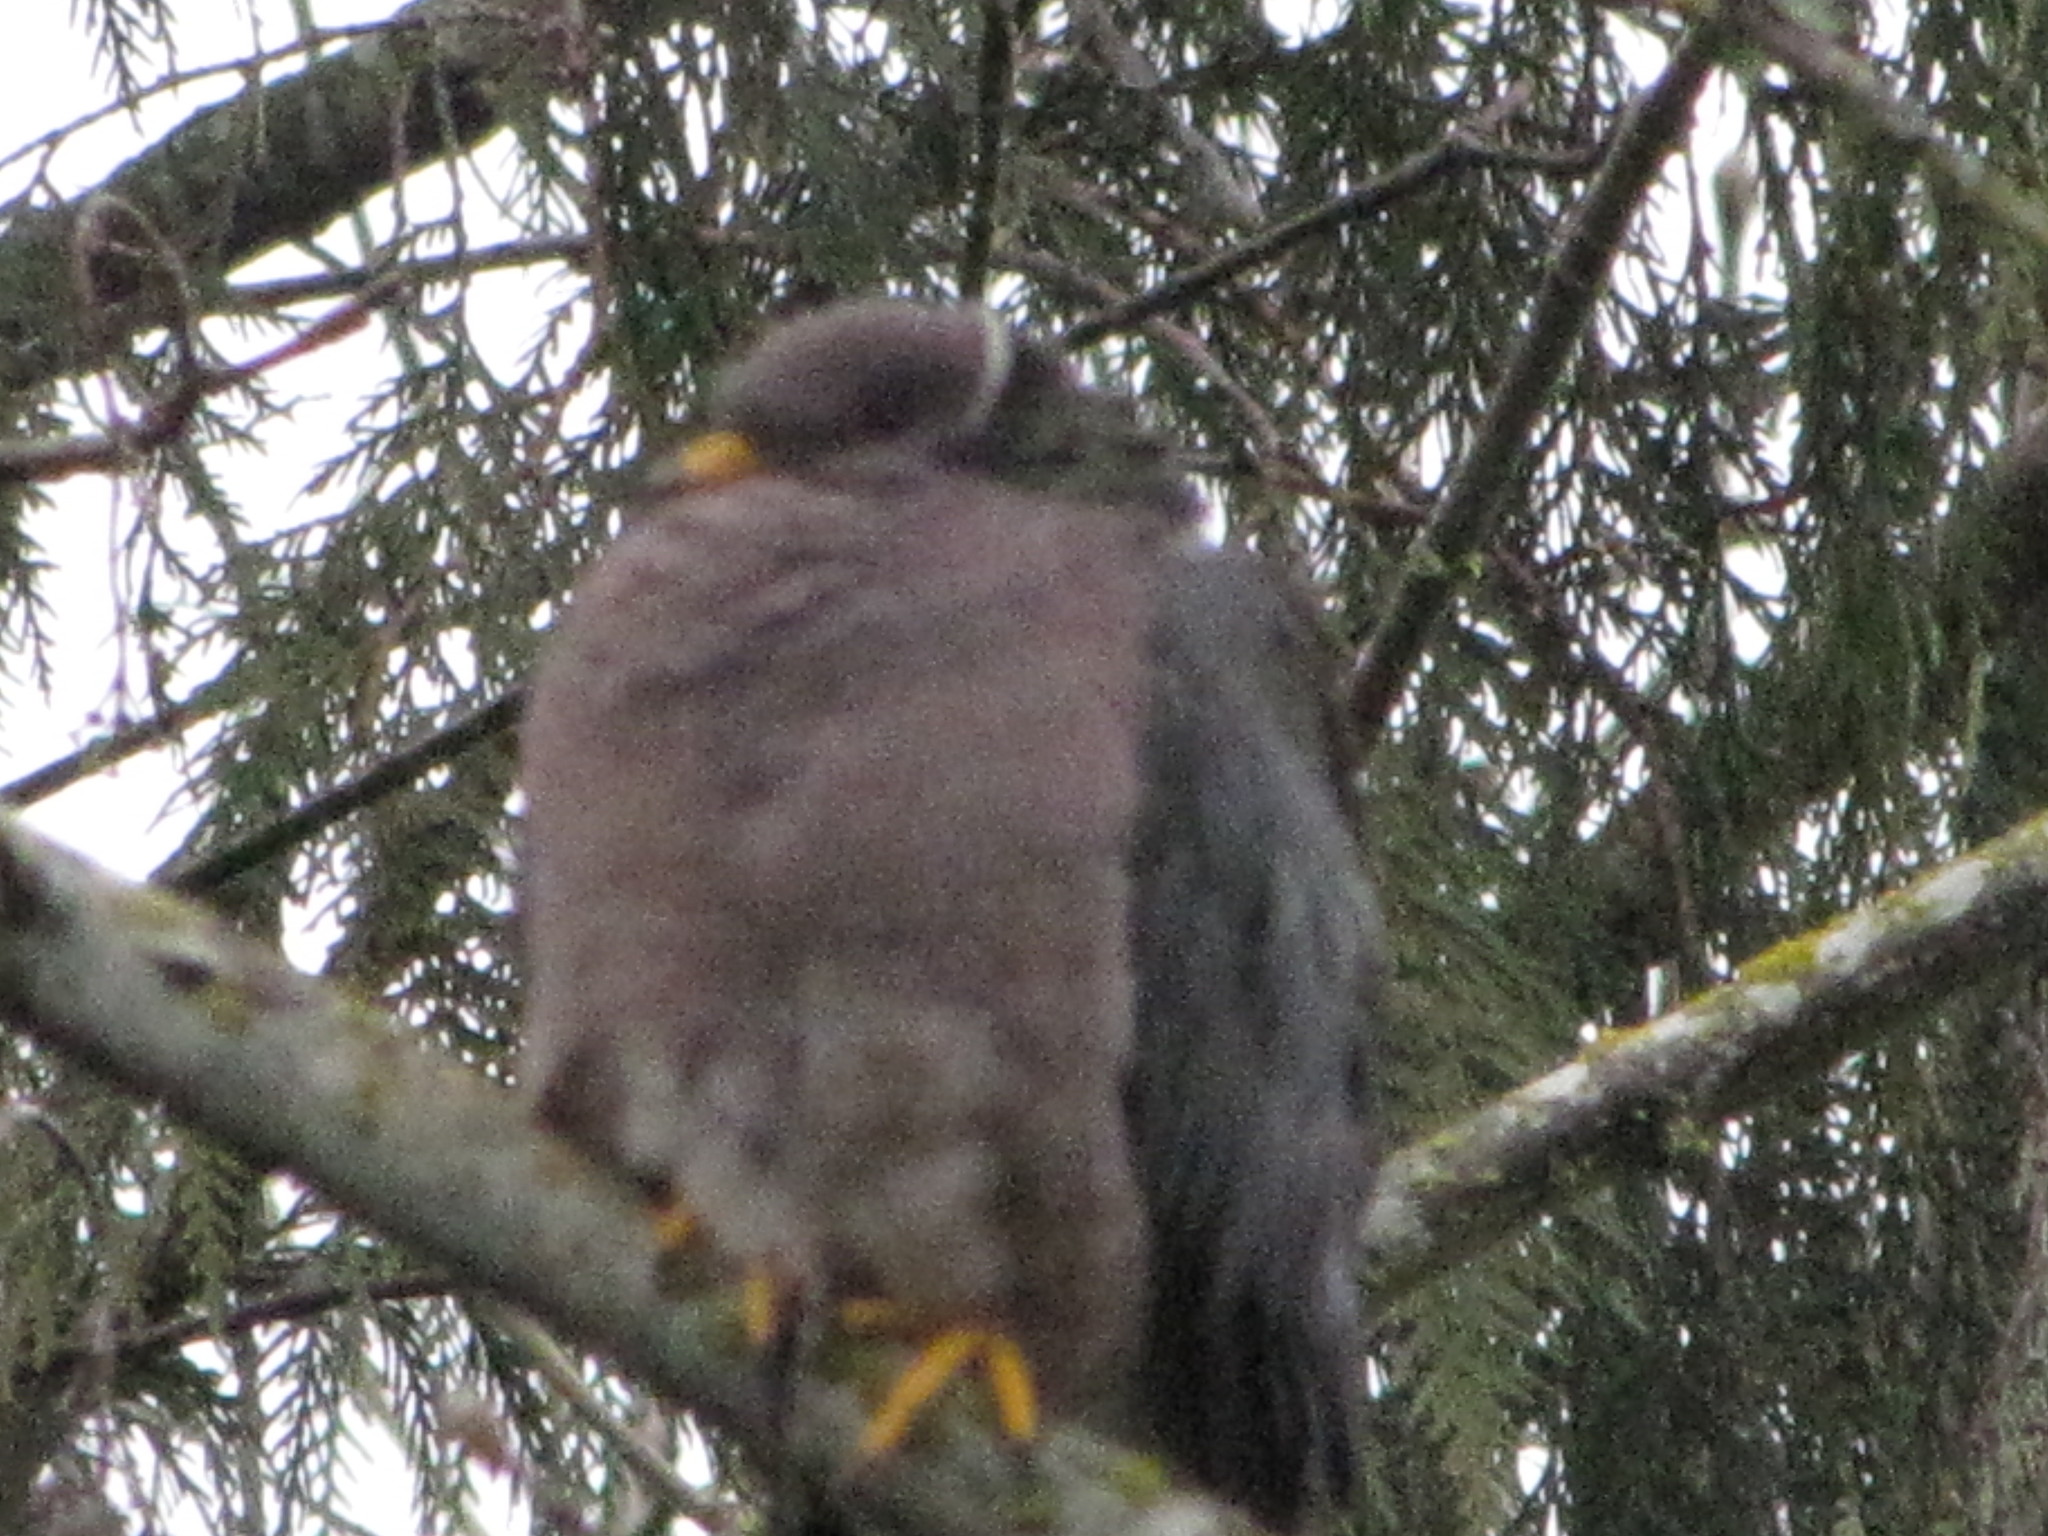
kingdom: Animalia
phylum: Chordata
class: Aves
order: Columbiformes
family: Columbidae
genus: Patagioenas
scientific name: Patagioenas fasciata
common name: Band-tailed pigeon
